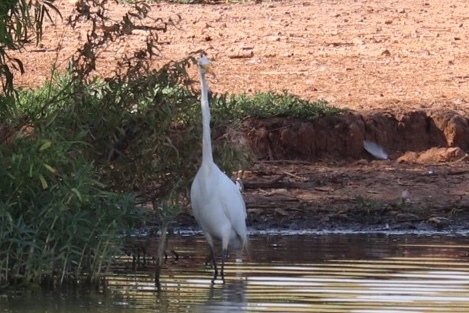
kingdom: Animalia
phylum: Chordata
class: Aves
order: Pelecaniformes
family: Ardeidae
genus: Ardea
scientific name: Ardea alba
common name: Great egret
